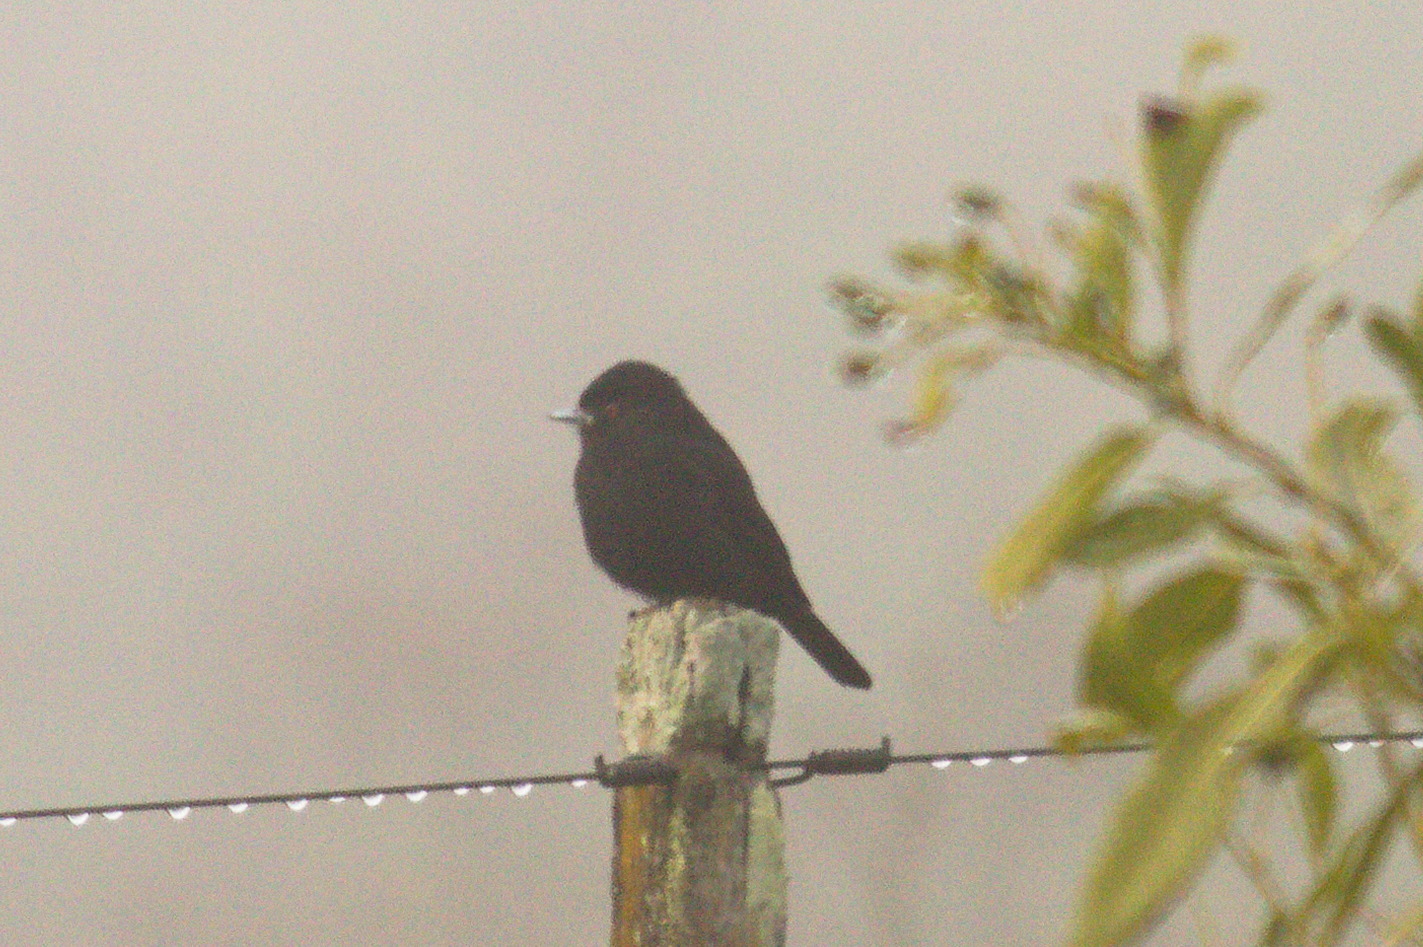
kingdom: Animalia
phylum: Chordata
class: Aves
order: Passeriformes
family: Tyrannidae
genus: Knipolegus
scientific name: Knipolegus cyanirostris
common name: Blue-billed black tyrant
